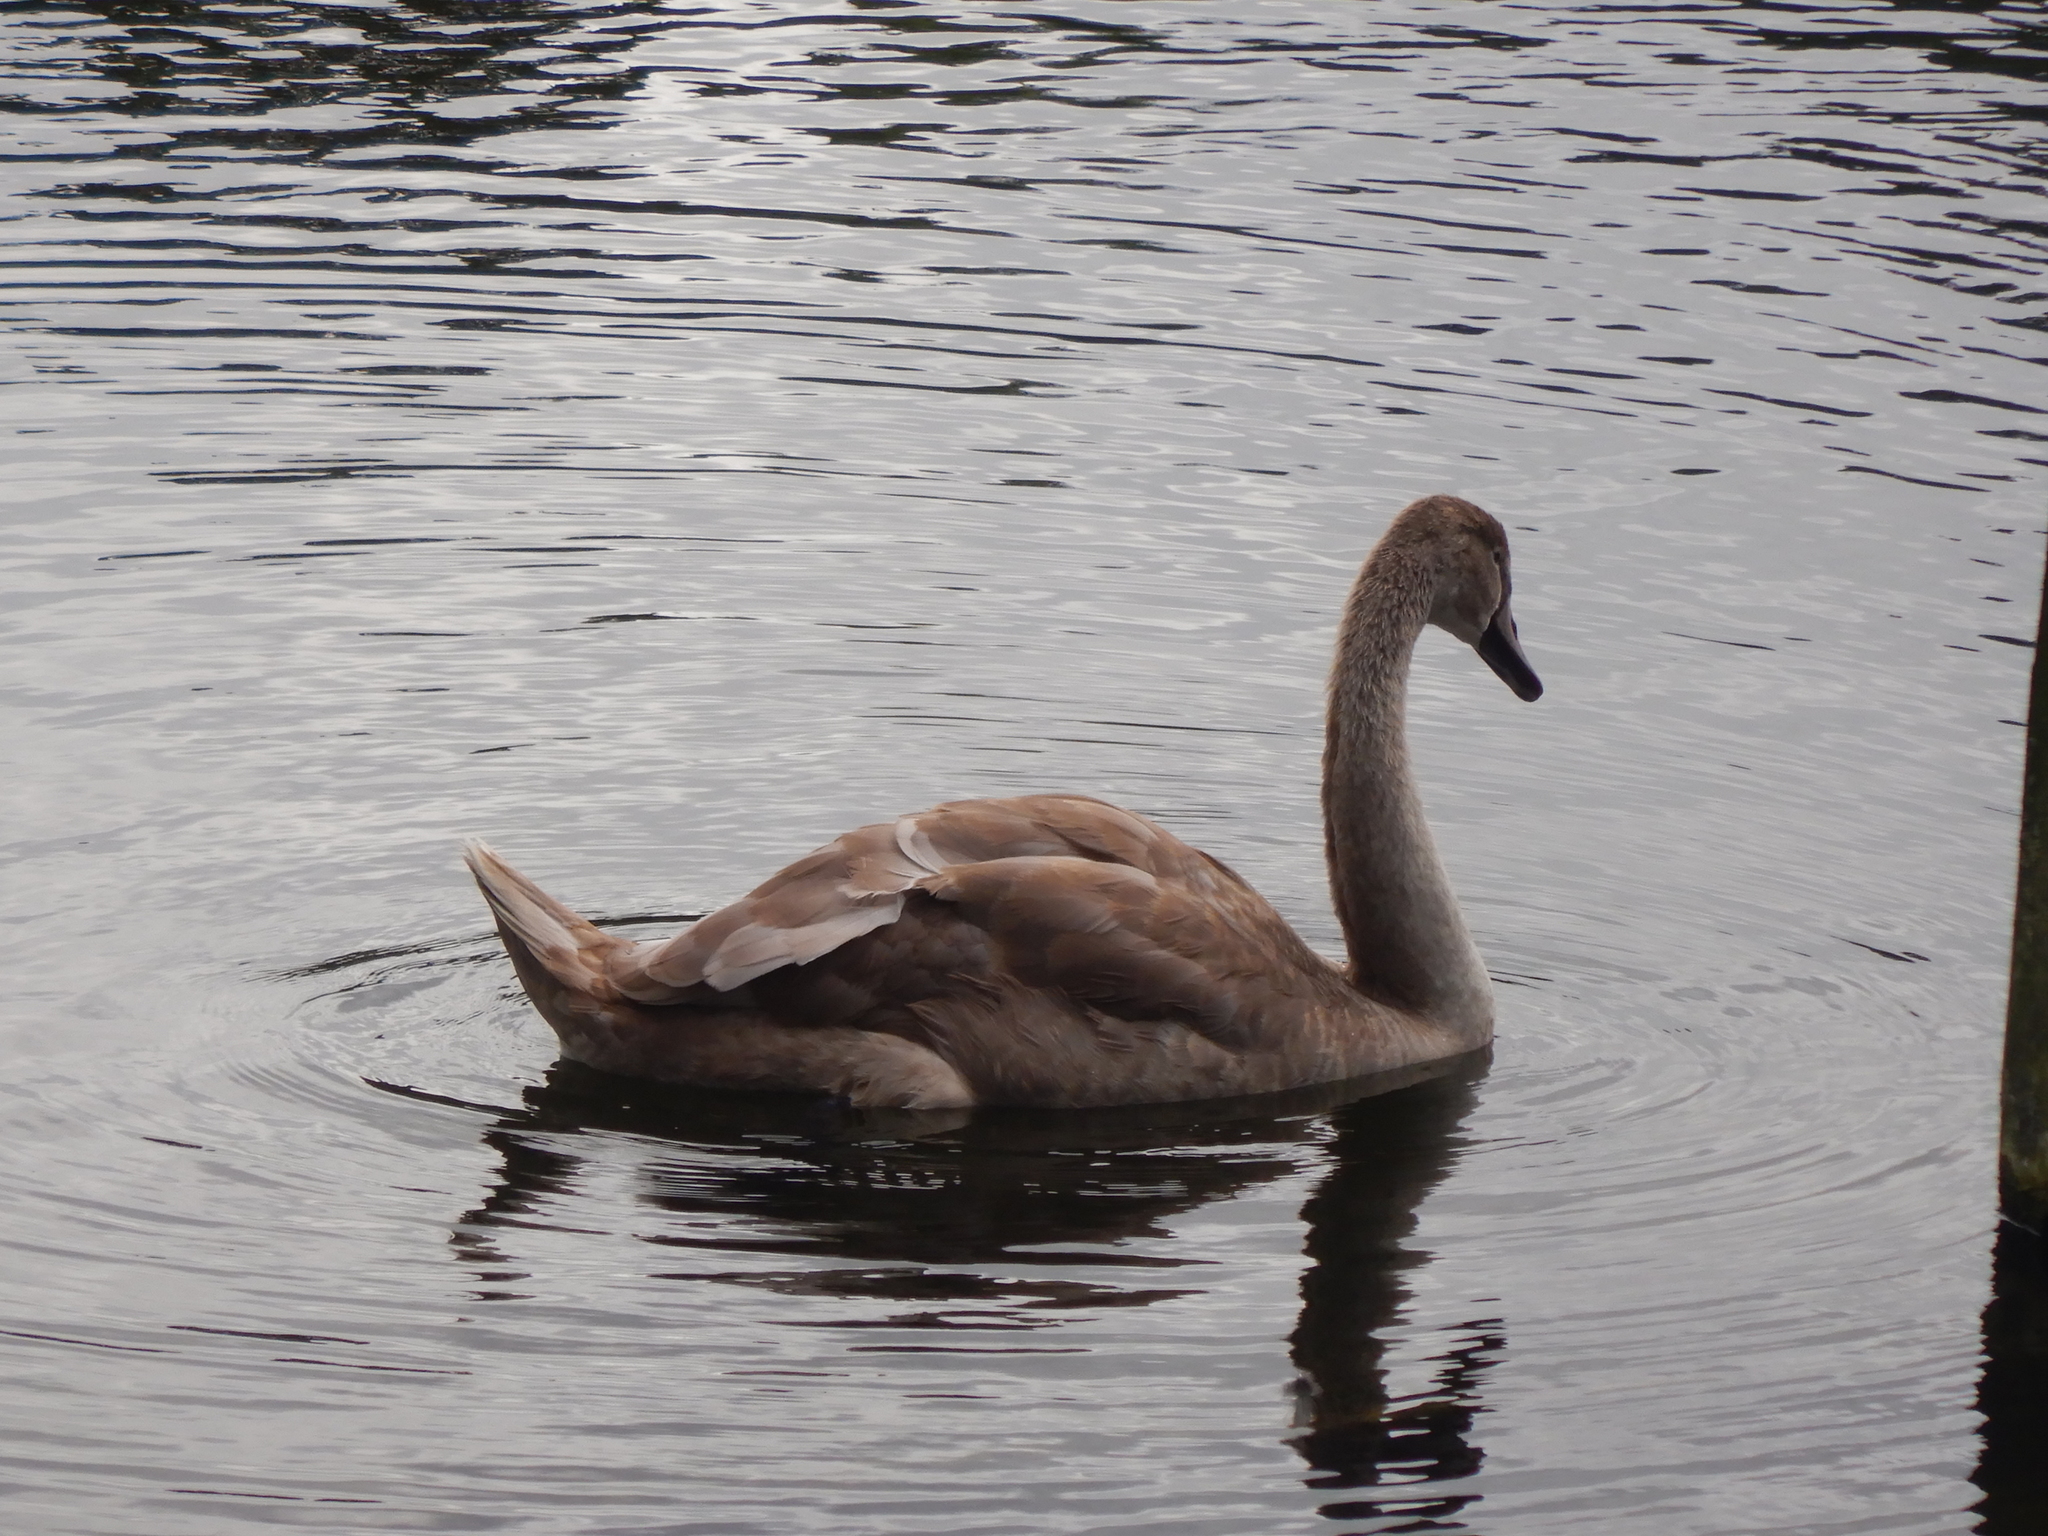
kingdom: Animalia
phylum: Chordata
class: Aves
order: Anseriformes
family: Anatidae
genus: Cygnus
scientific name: Cygnus olor
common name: Mute swan
